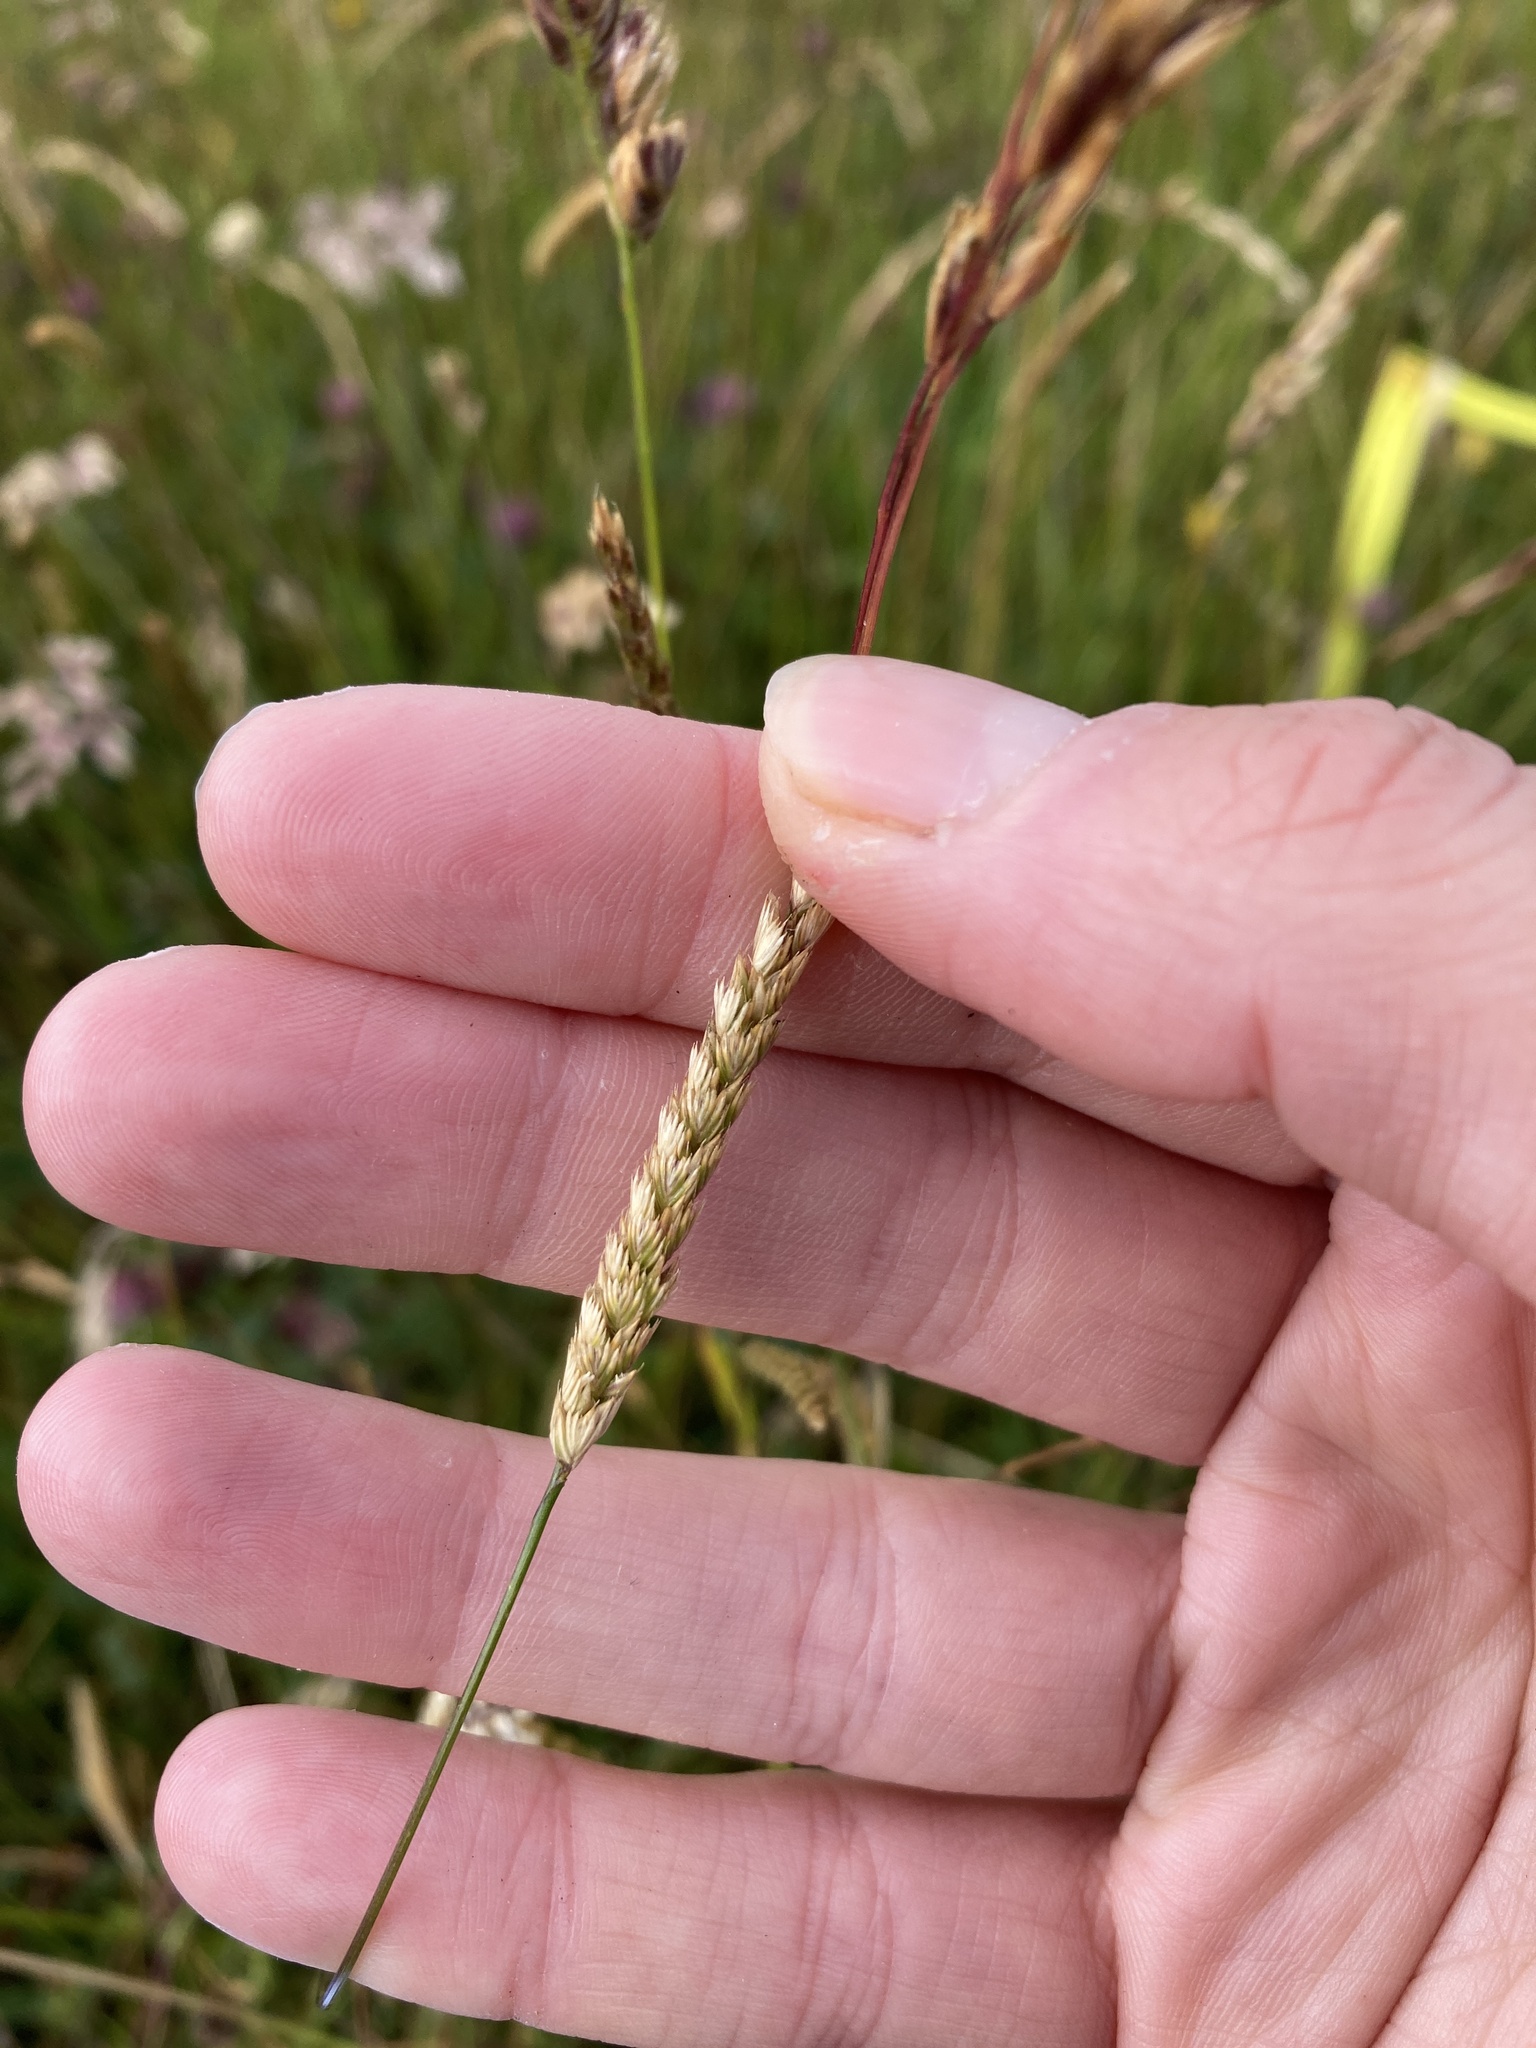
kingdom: Plantae
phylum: Tracheophyta
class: Liliopsida
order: Poales
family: Poaceae
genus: Cynosurus
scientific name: Cynosurus cristatus
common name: Crested dog's-tail
